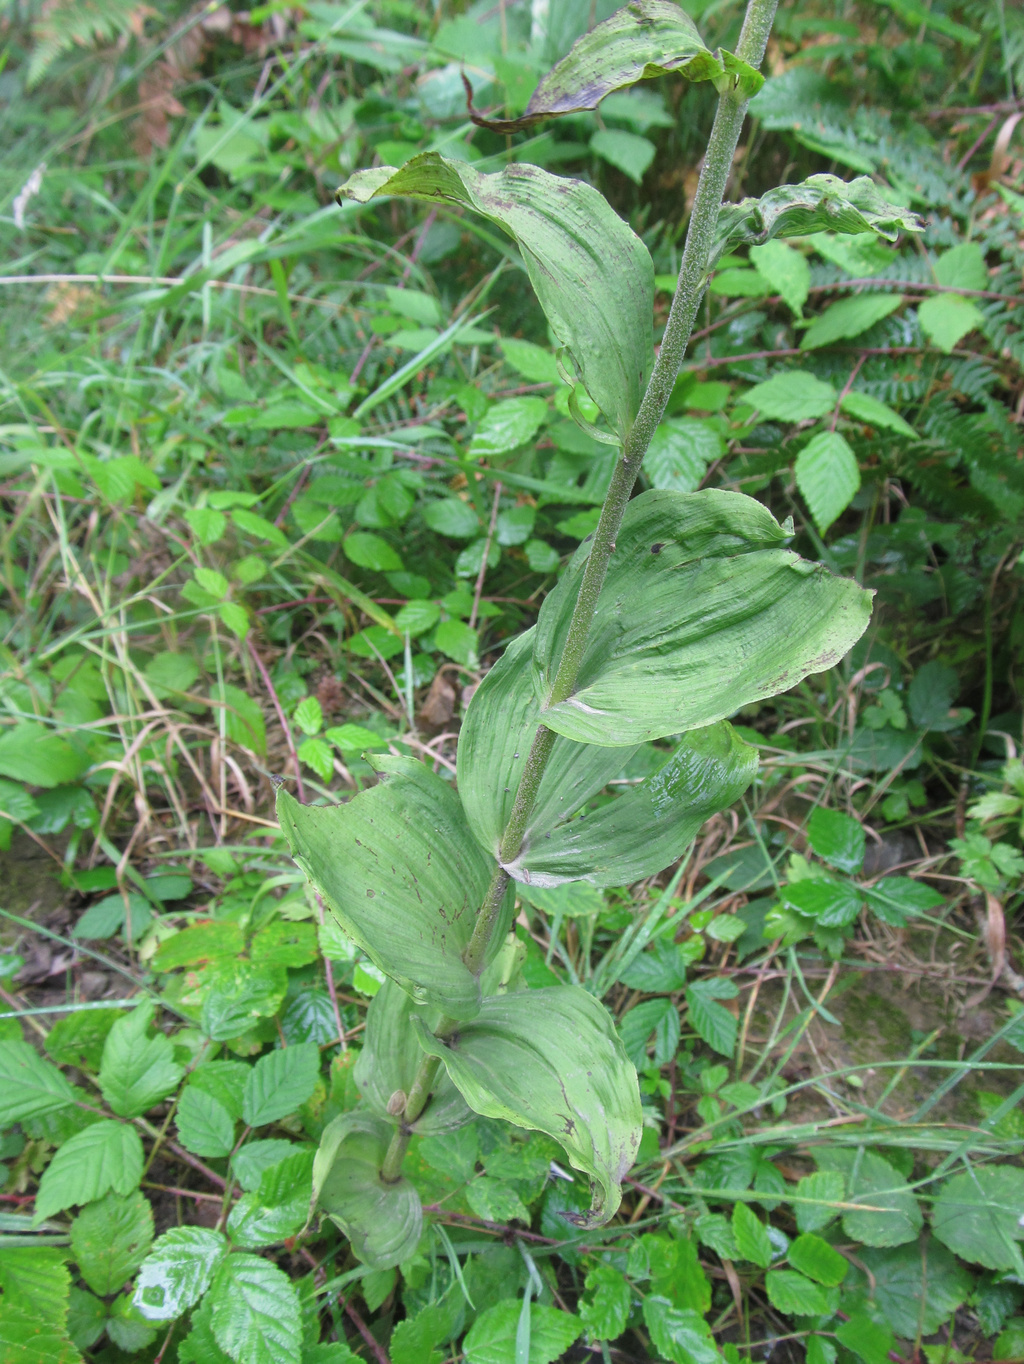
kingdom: Plantae
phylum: Tracheophyta
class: Liliopsida
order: Asparagales
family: Orchidaceae
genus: Epipactis
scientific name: Epipactis helleborine
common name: Broad-leaved helleborine
